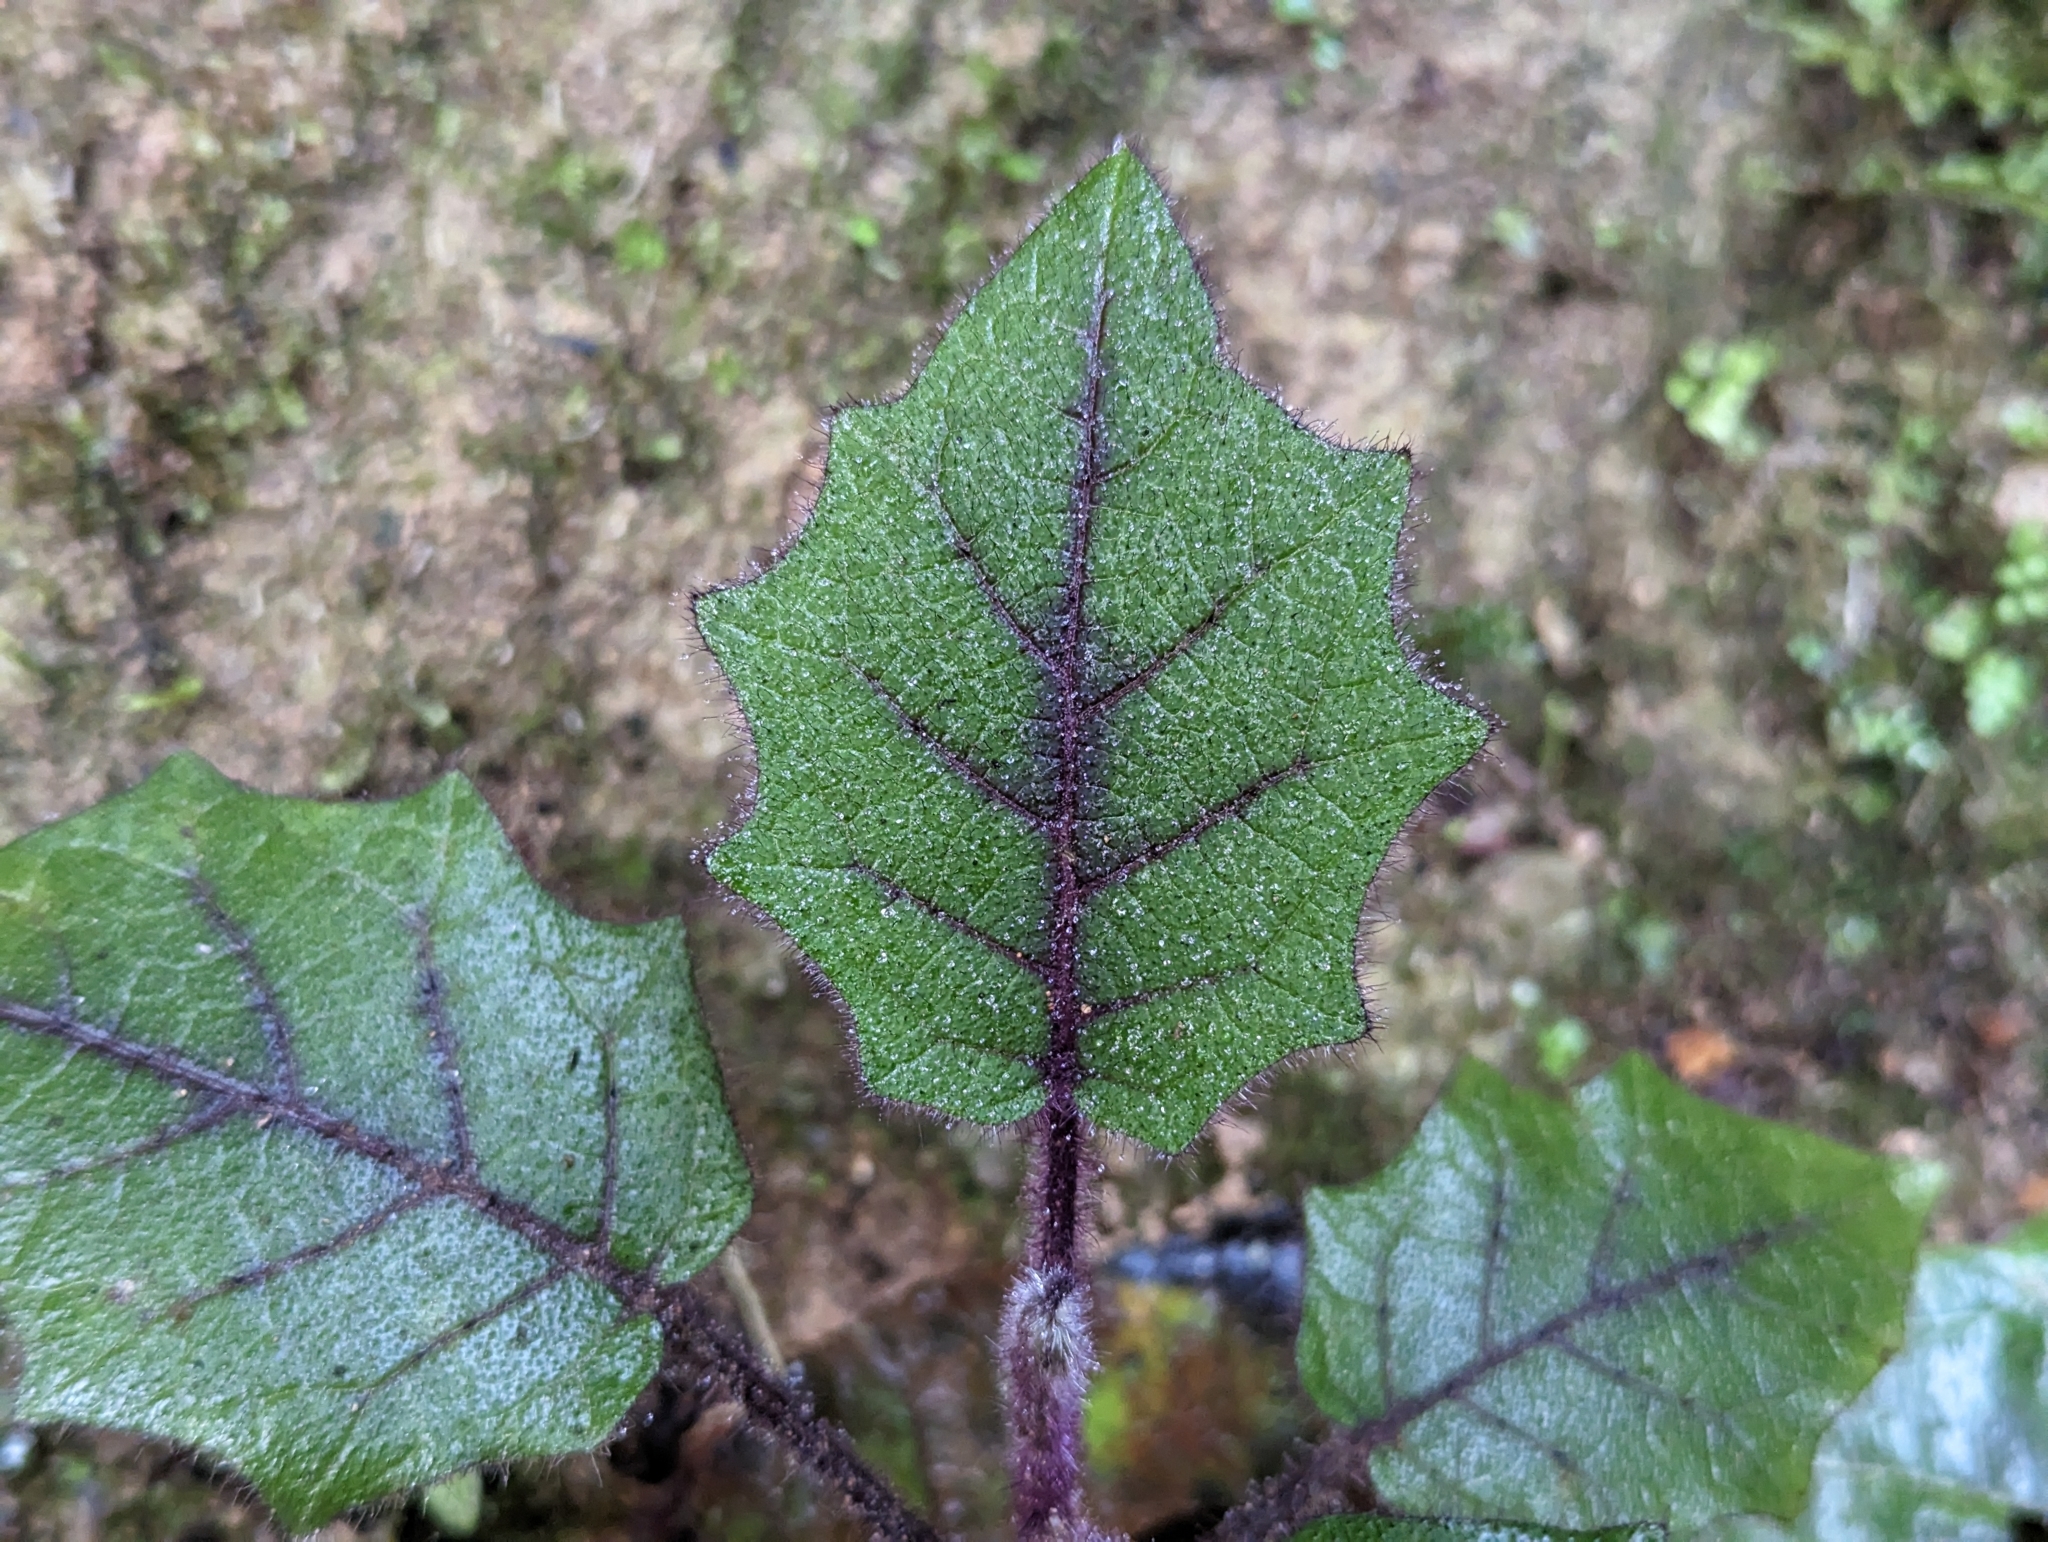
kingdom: Plantae
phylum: Tracheophyta
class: Magnoliopsida
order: Solanales
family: Solanaceae
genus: Solanum
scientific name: Solanum quitoense
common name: Quito-orange
